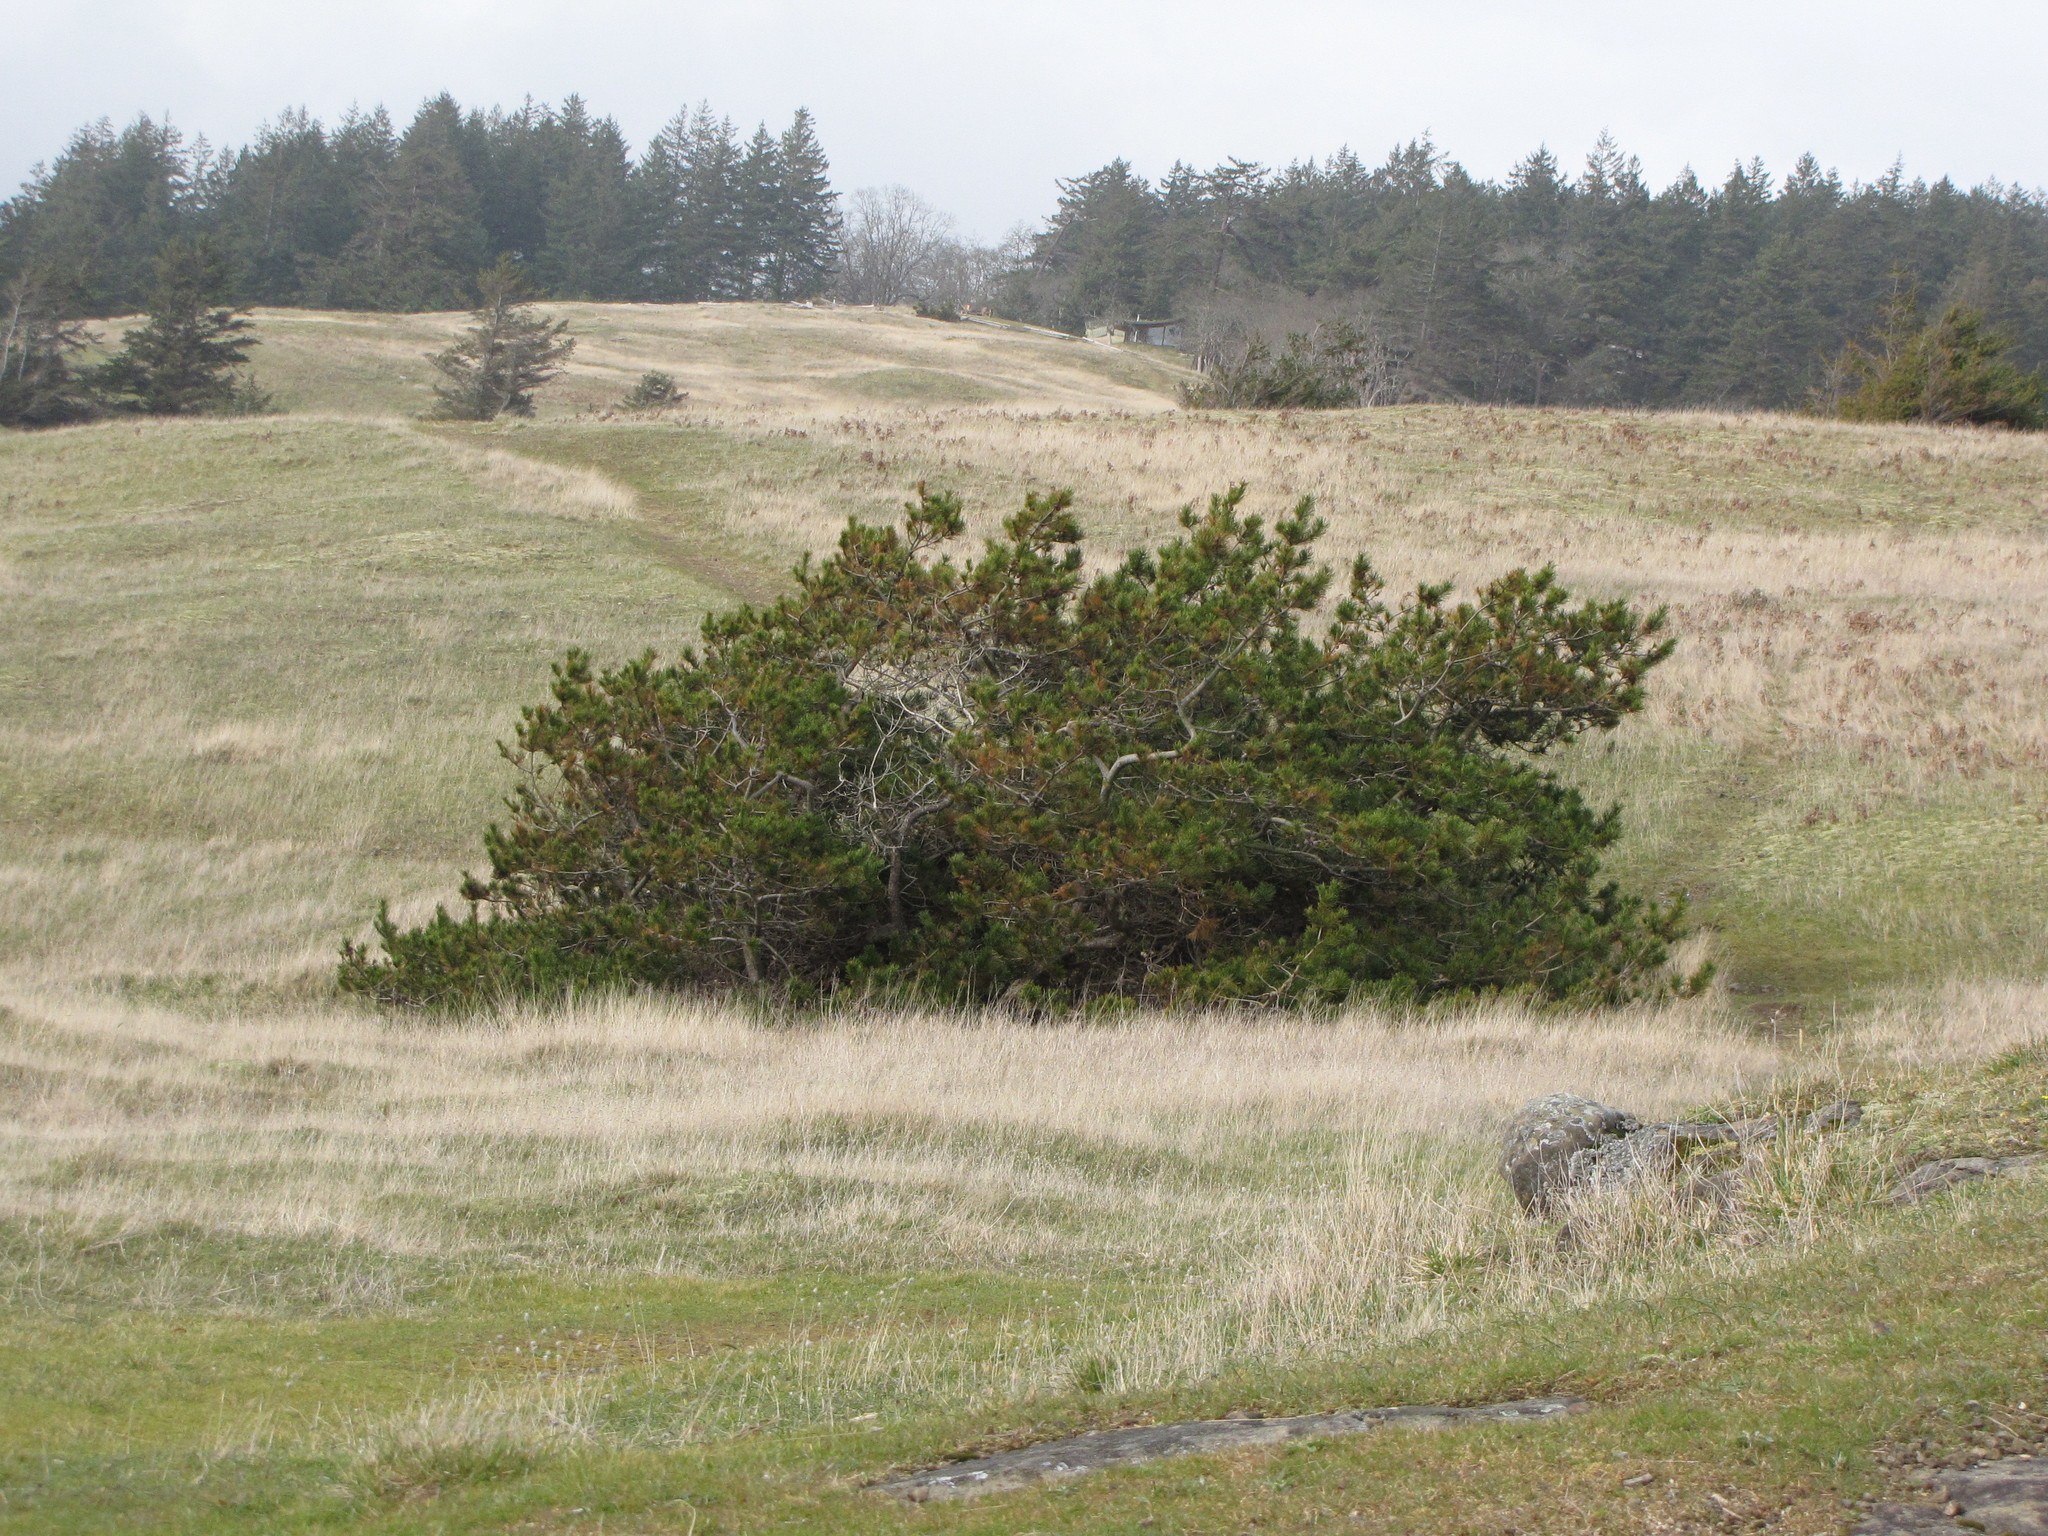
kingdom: Plantae
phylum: Tracheophyta
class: Pinopsida
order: Pinales
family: Pinaceae
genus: Pinus
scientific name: Pinus contorta
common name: Lodgepole pine
